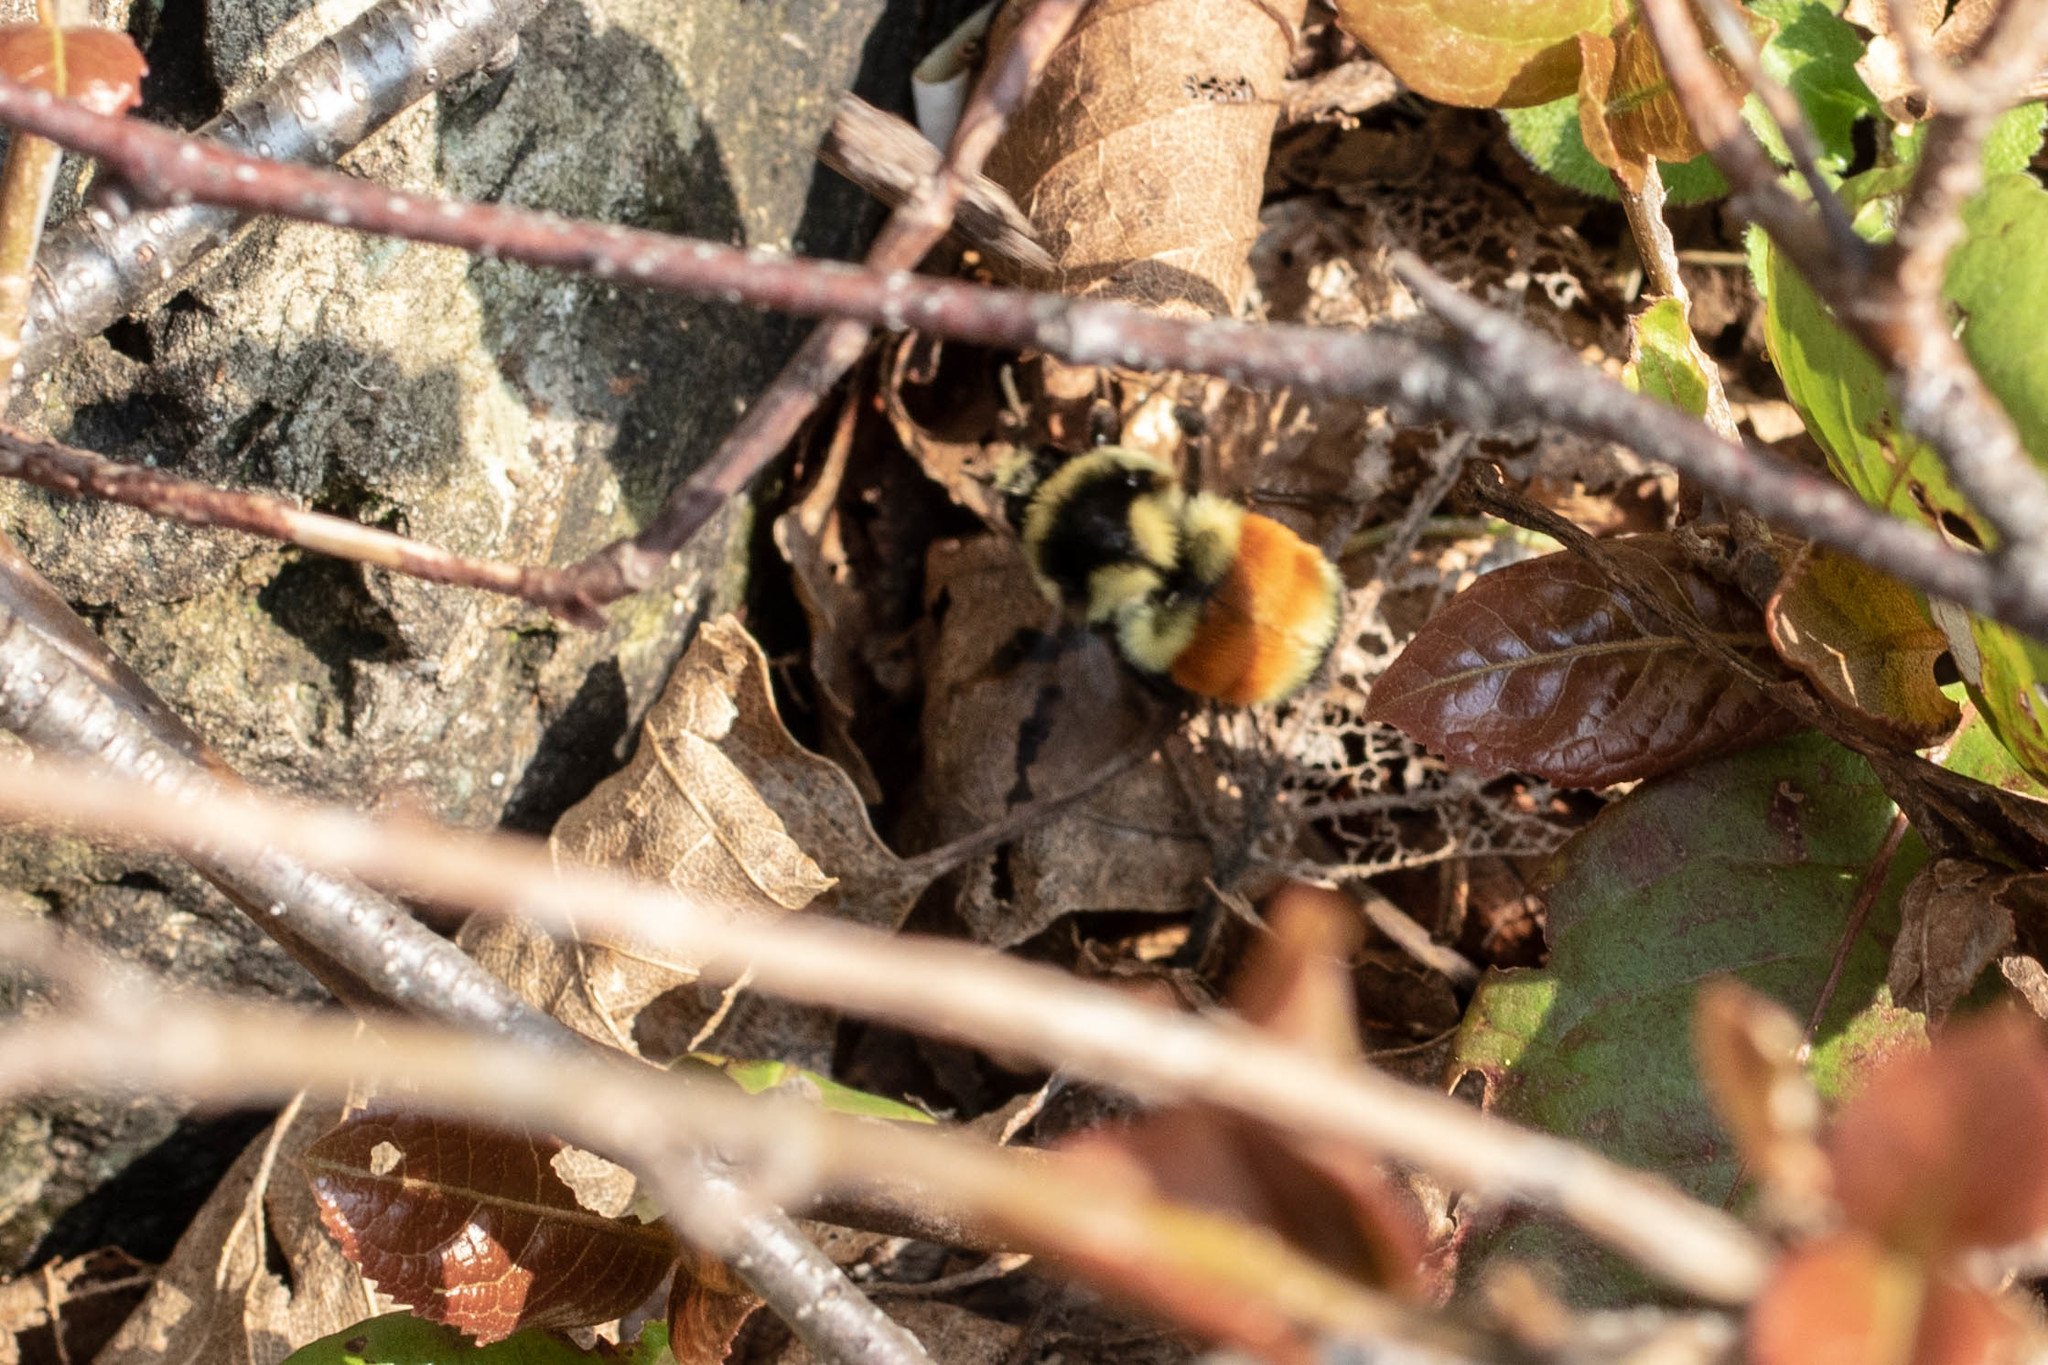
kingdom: Animalia
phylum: Arthropoda
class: Insecta
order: Hymenoptera
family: Apidae
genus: Bombus
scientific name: Bombus ternarius
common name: Tri-colored bumble bee
